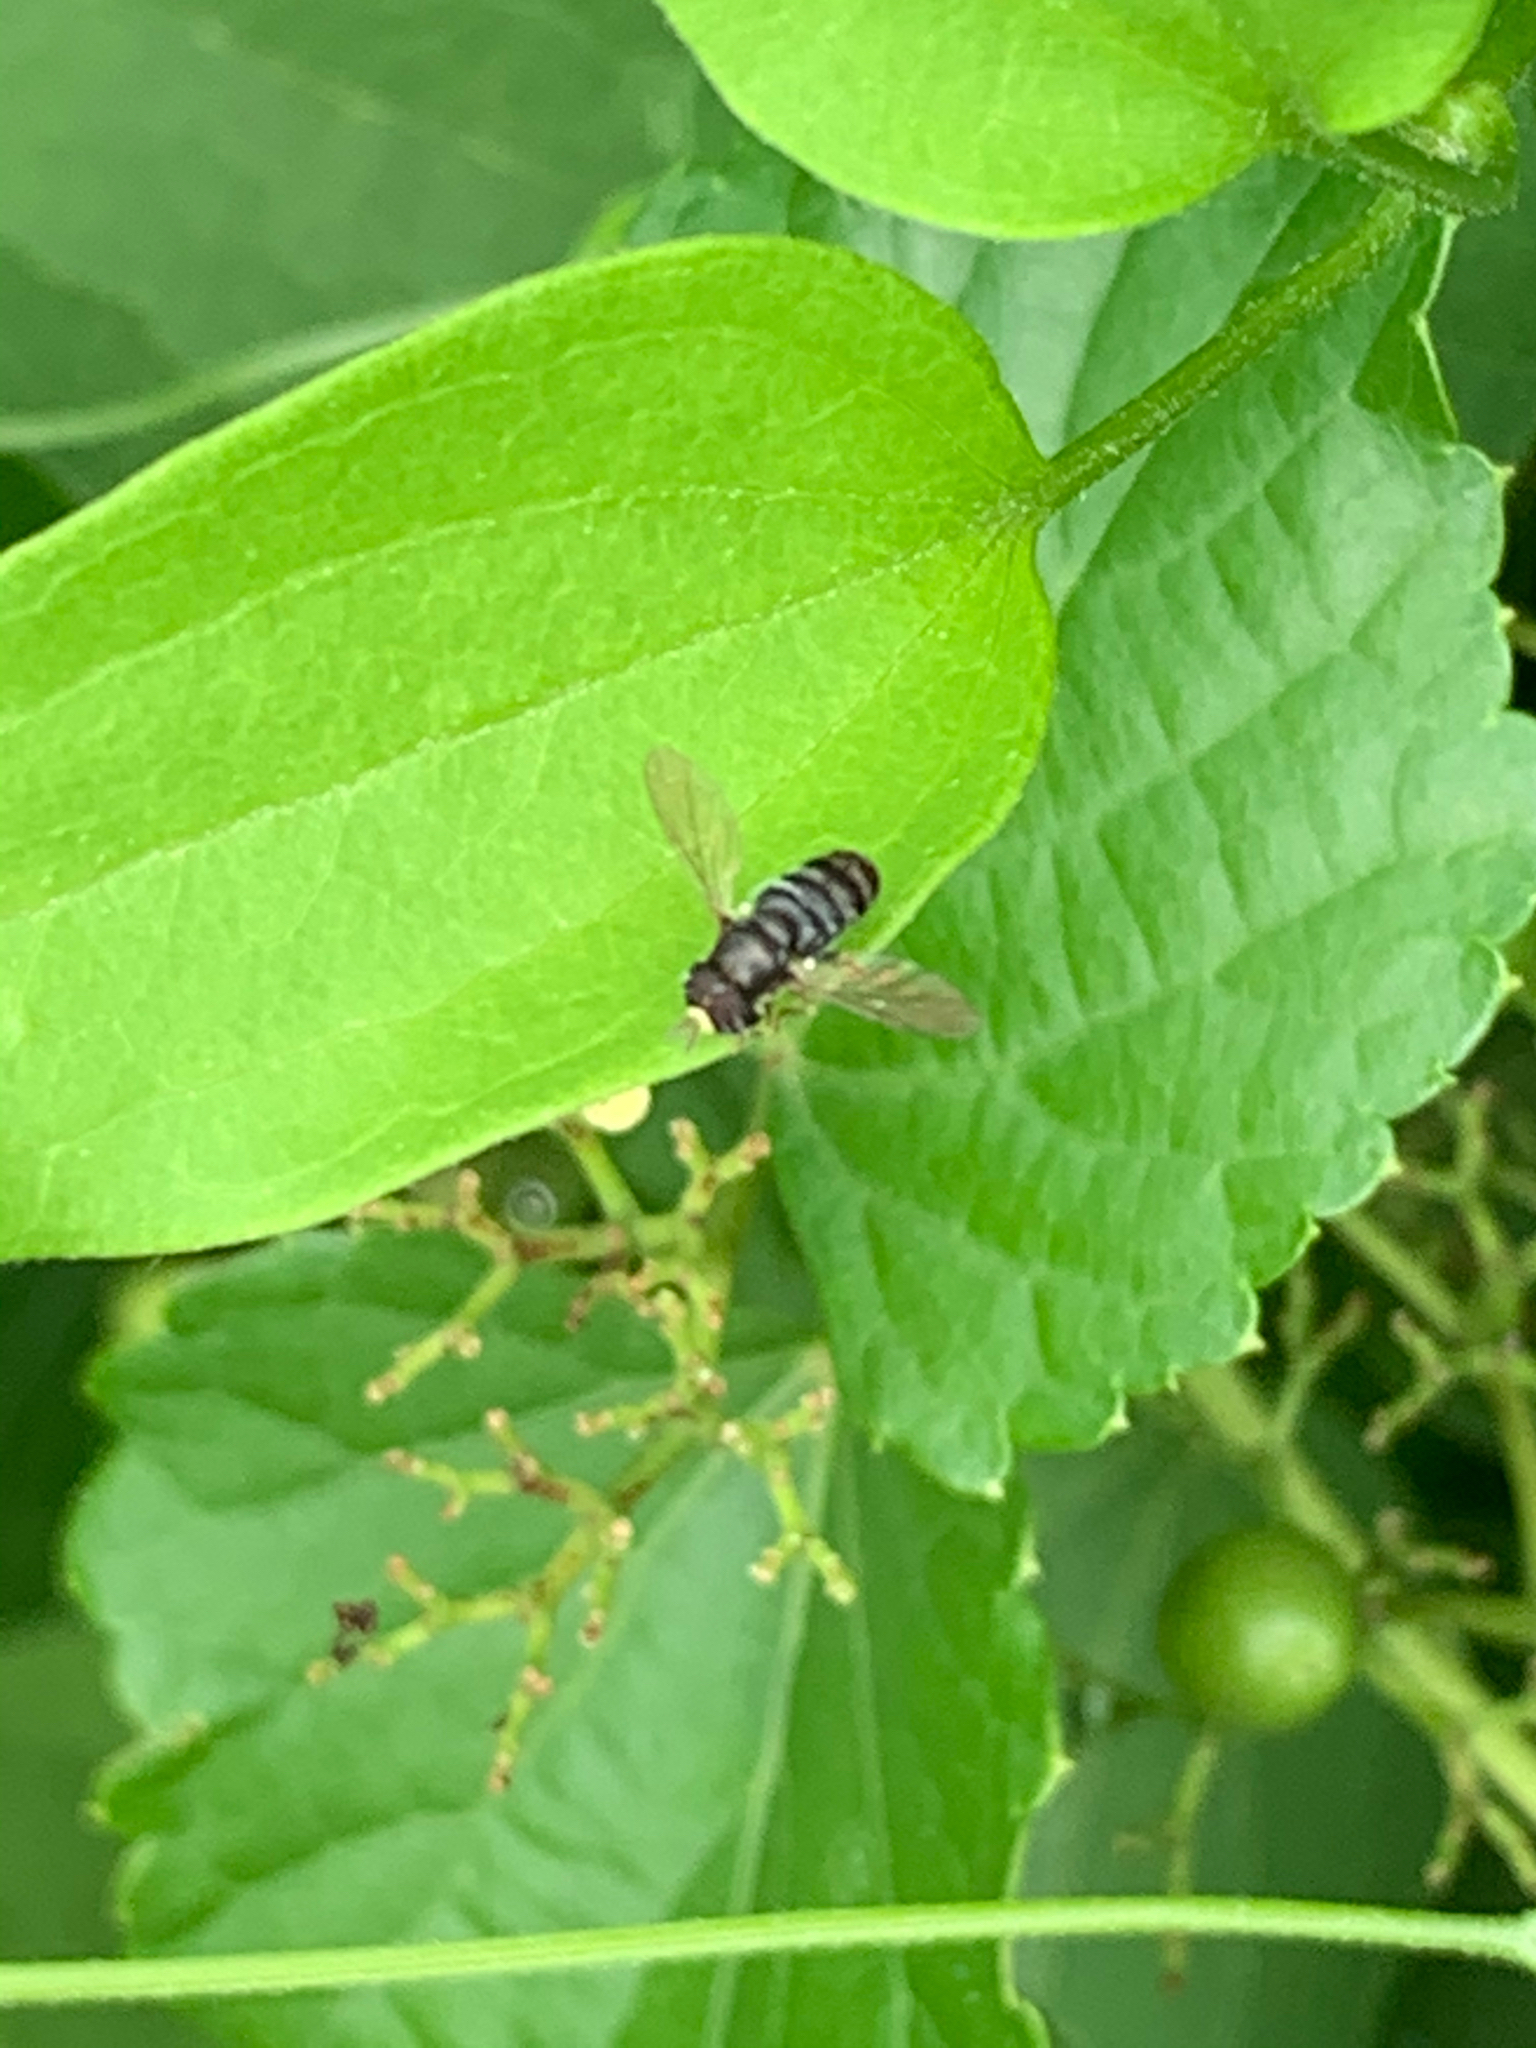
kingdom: Animalia
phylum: Arthropoda
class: Insecta
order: Diptera
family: Syrphidae
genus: Paragus
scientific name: Paragus
